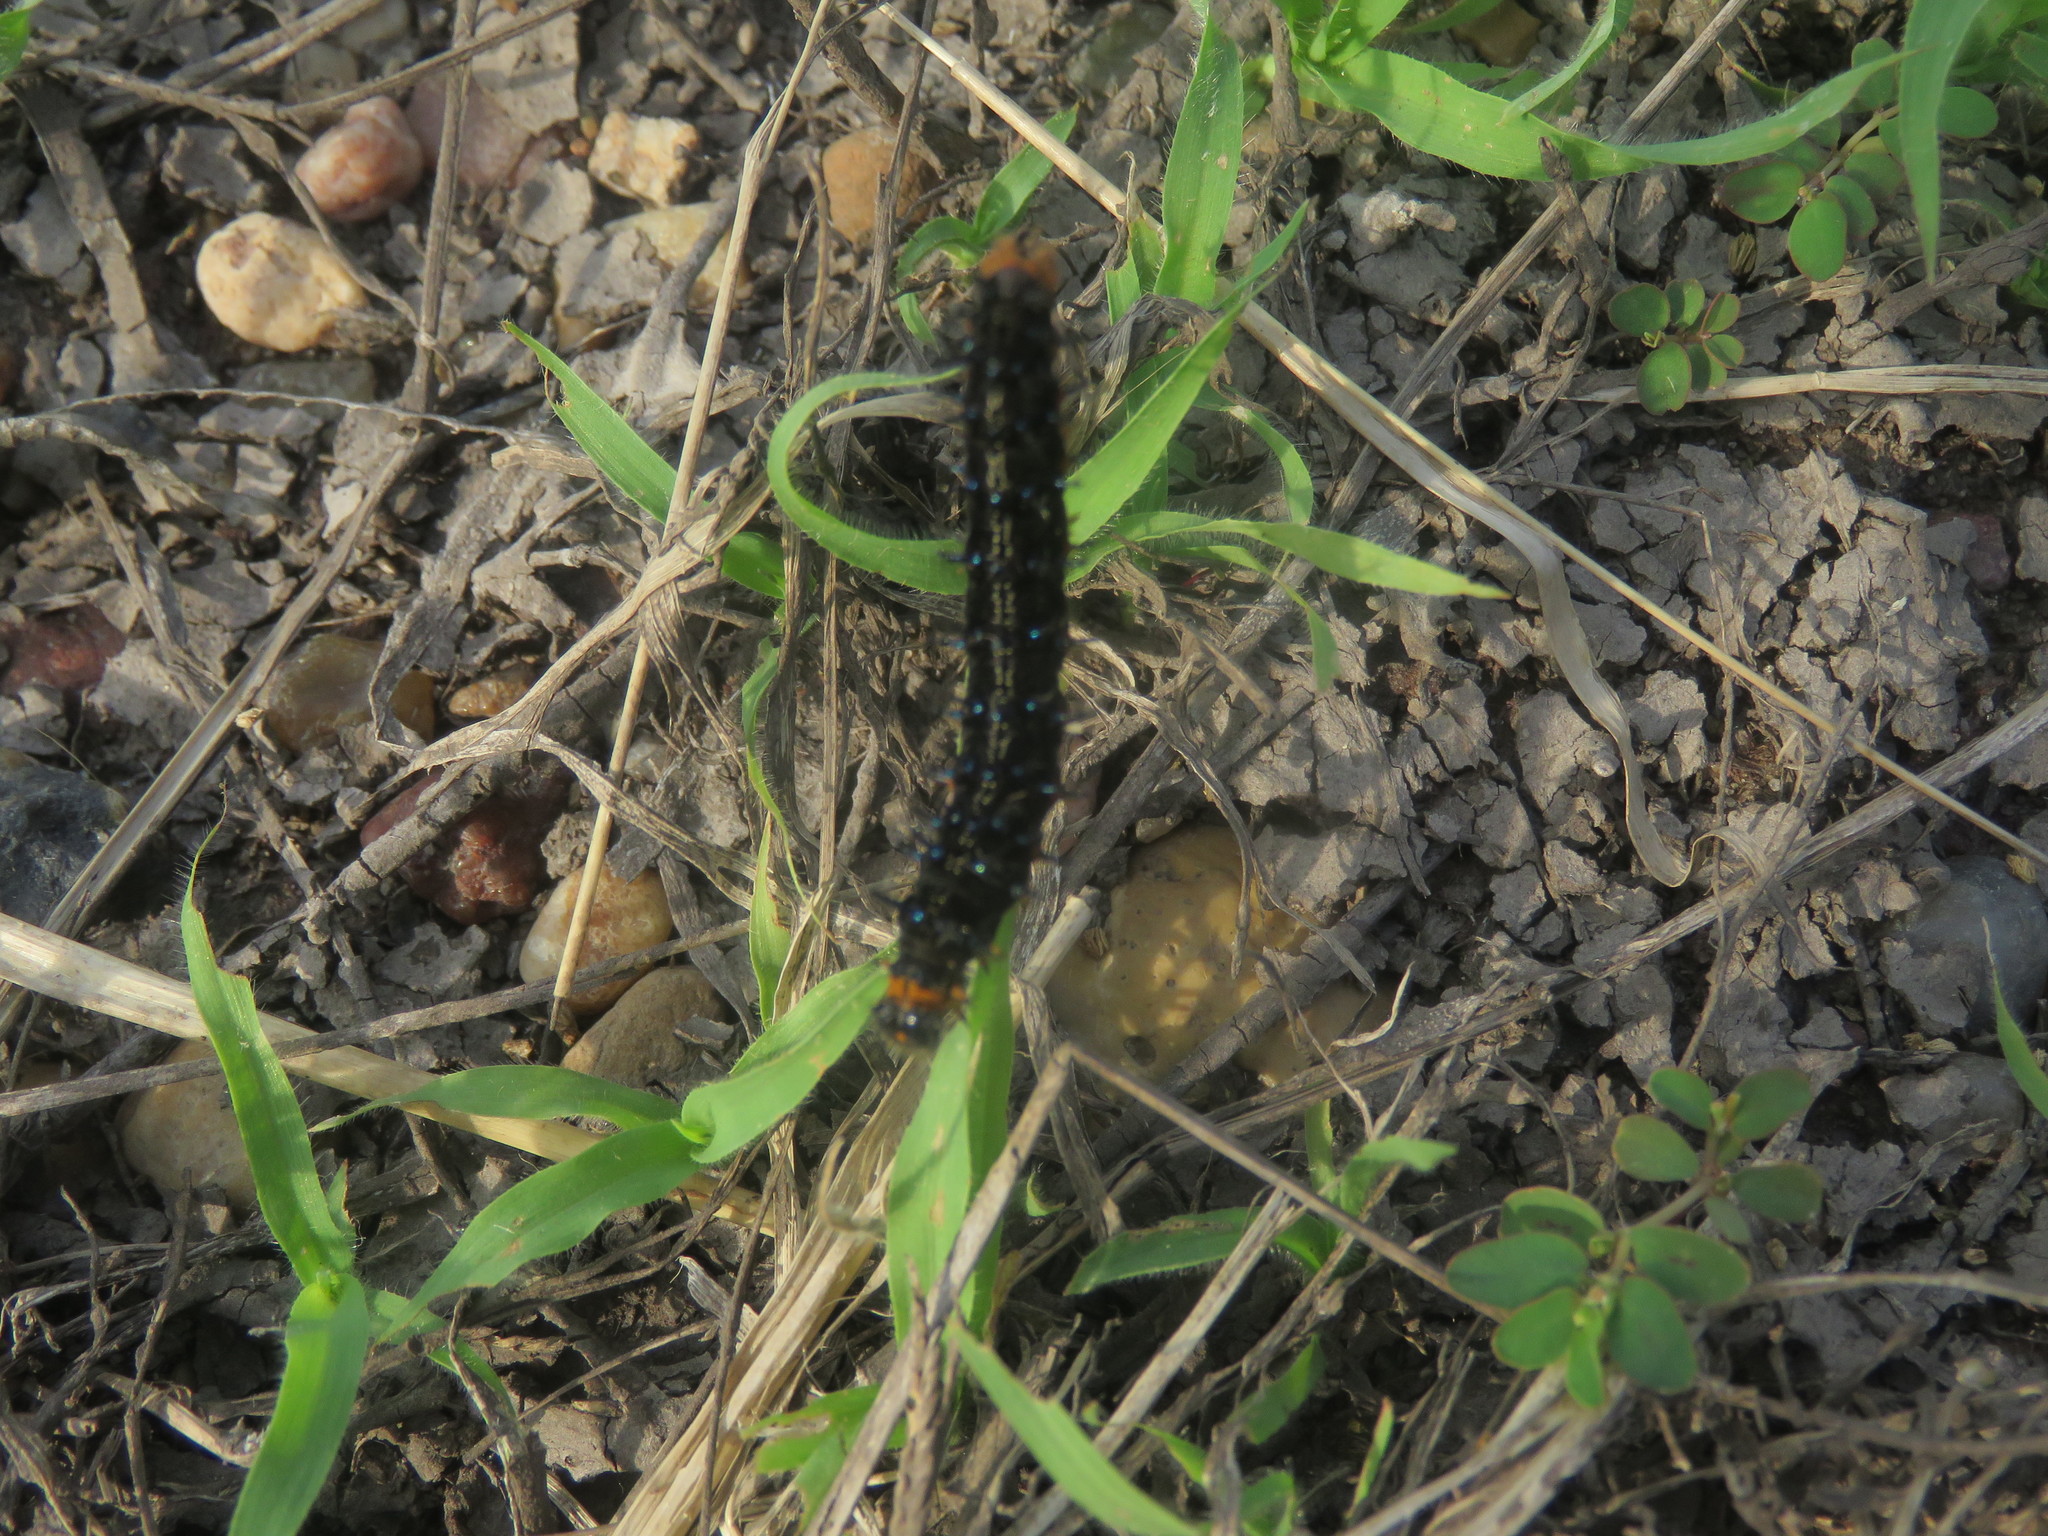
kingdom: Animalia
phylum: Arthropoda
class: Insecta
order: Lepidoptera
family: Nymphalidae
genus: Junonia
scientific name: Junonia lavinia
